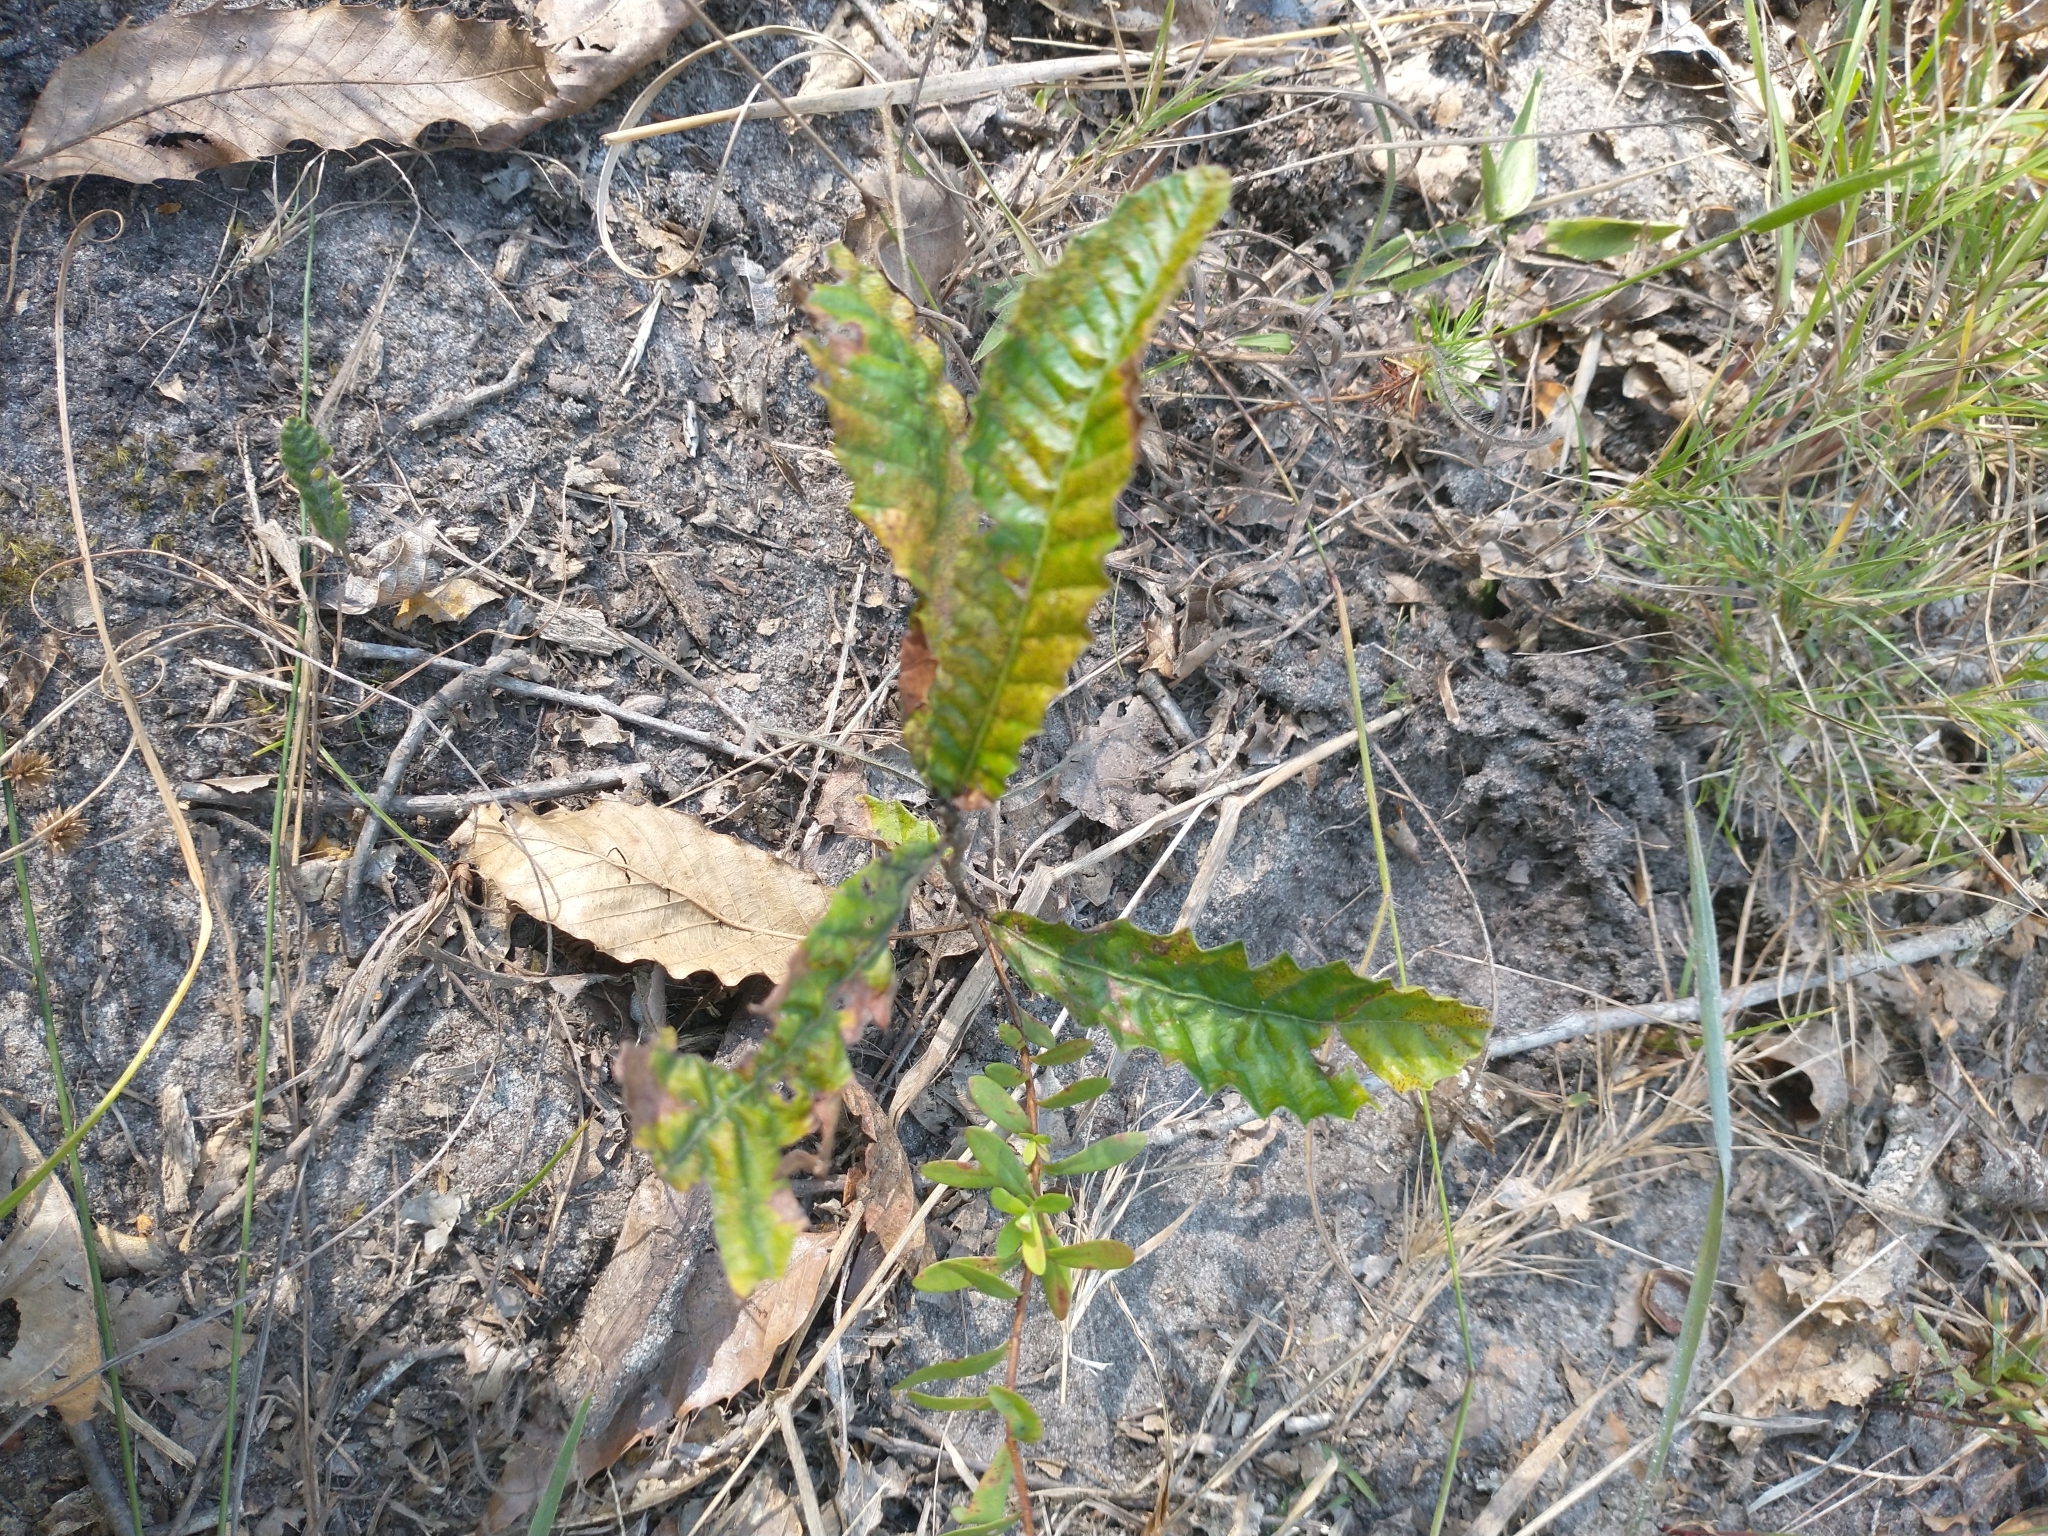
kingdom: Plantae
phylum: Tracheophyta
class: Magnoliopsida
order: Fagales
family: Fagaceae
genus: Quercus
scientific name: Quercus acutissima
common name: Sawtooth oak
